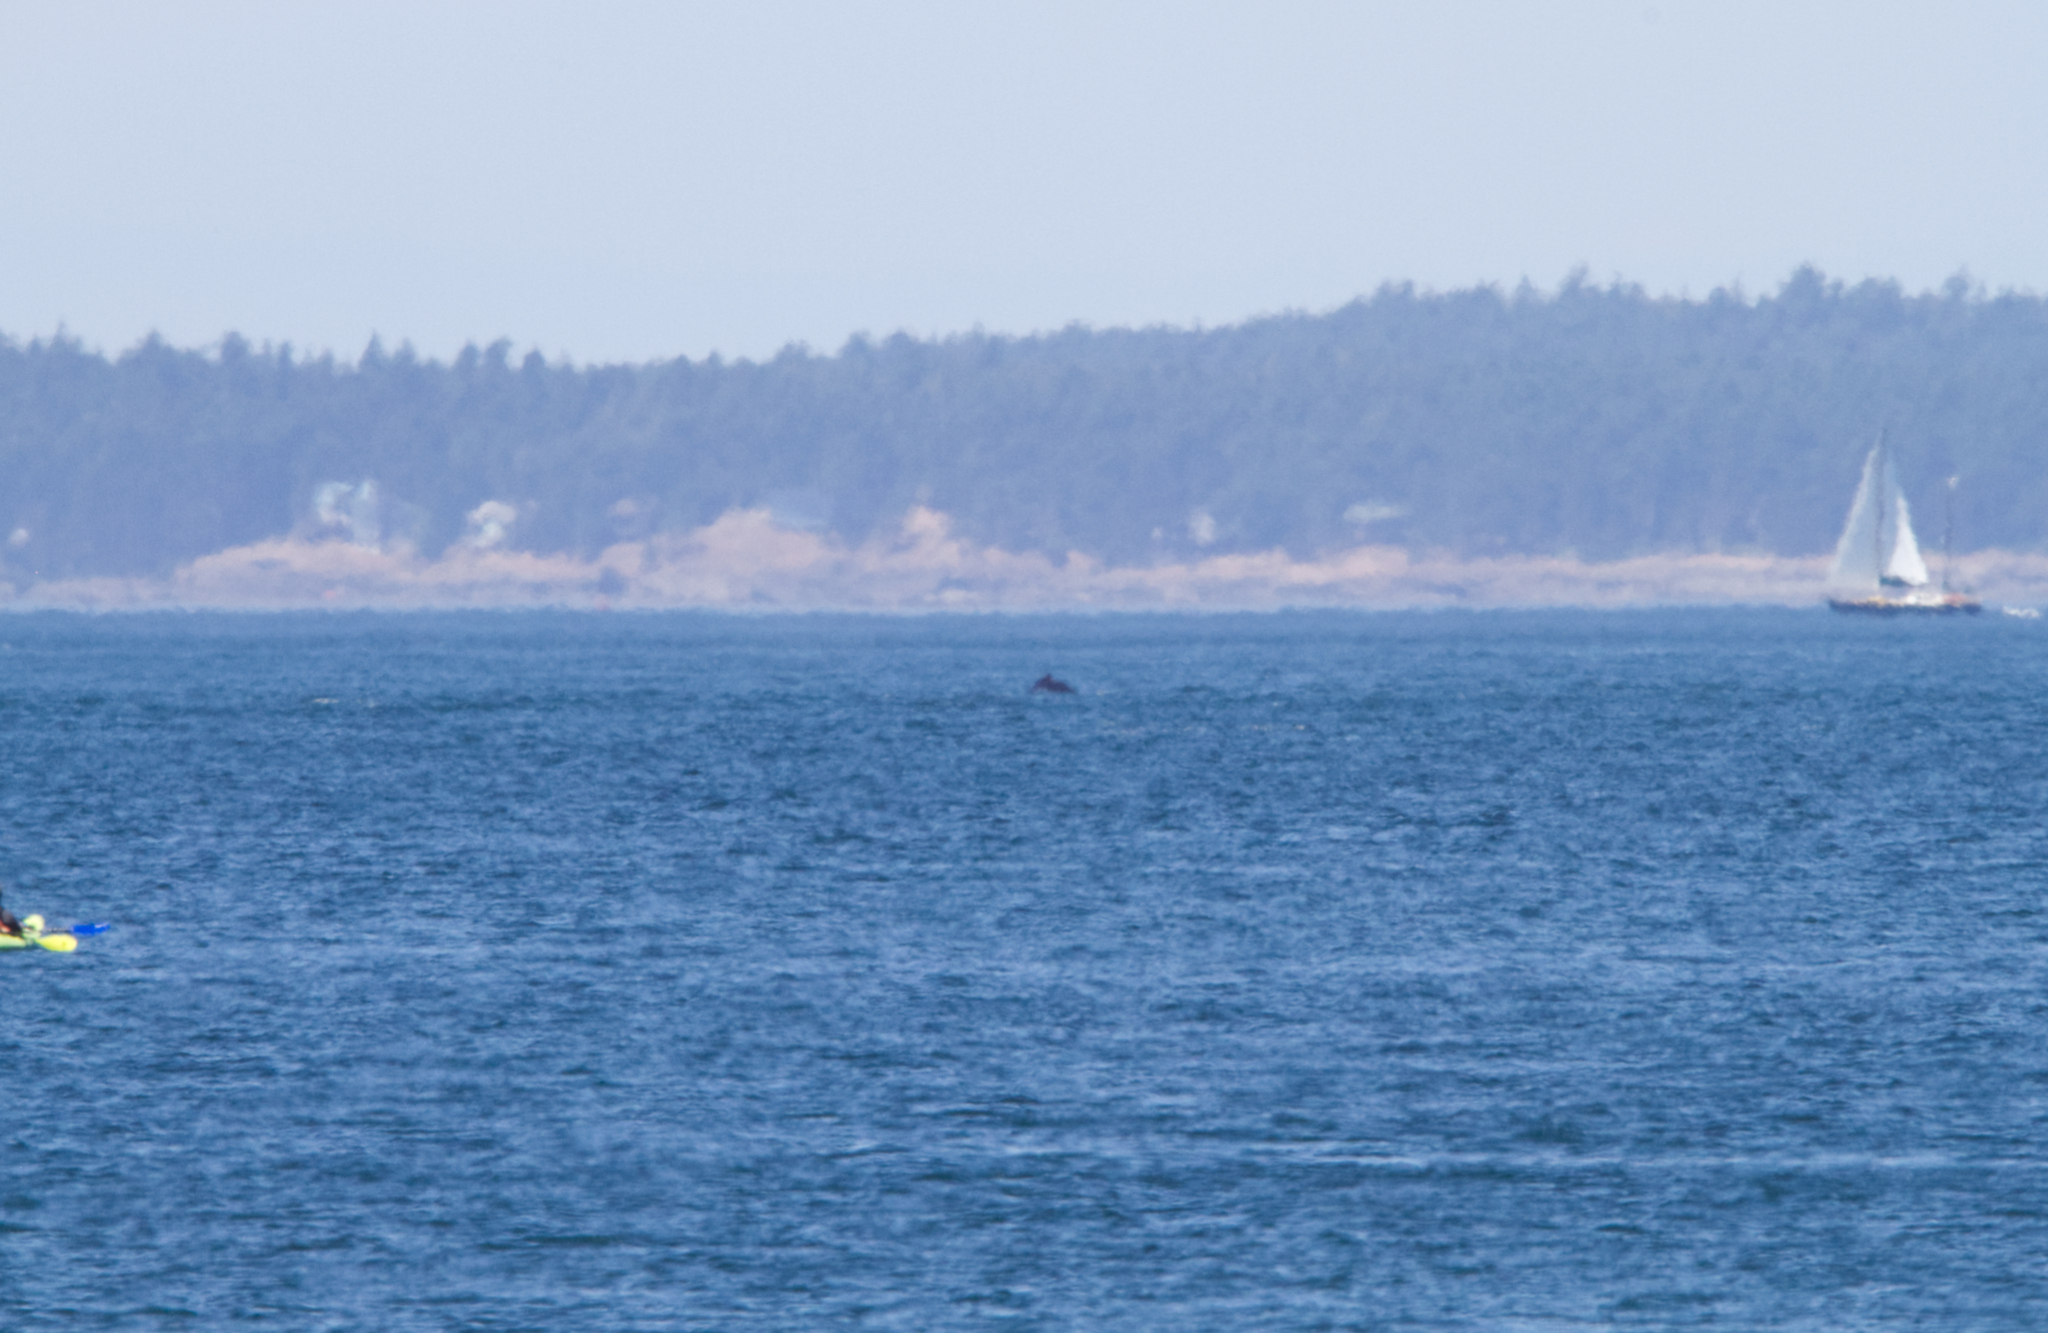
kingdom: Animalia
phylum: Chordata
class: Mammalia
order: Cetacea
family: Balaenopteridae
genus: Megaptera
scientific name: Megaptera novaeangliae
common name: Humpback whale
